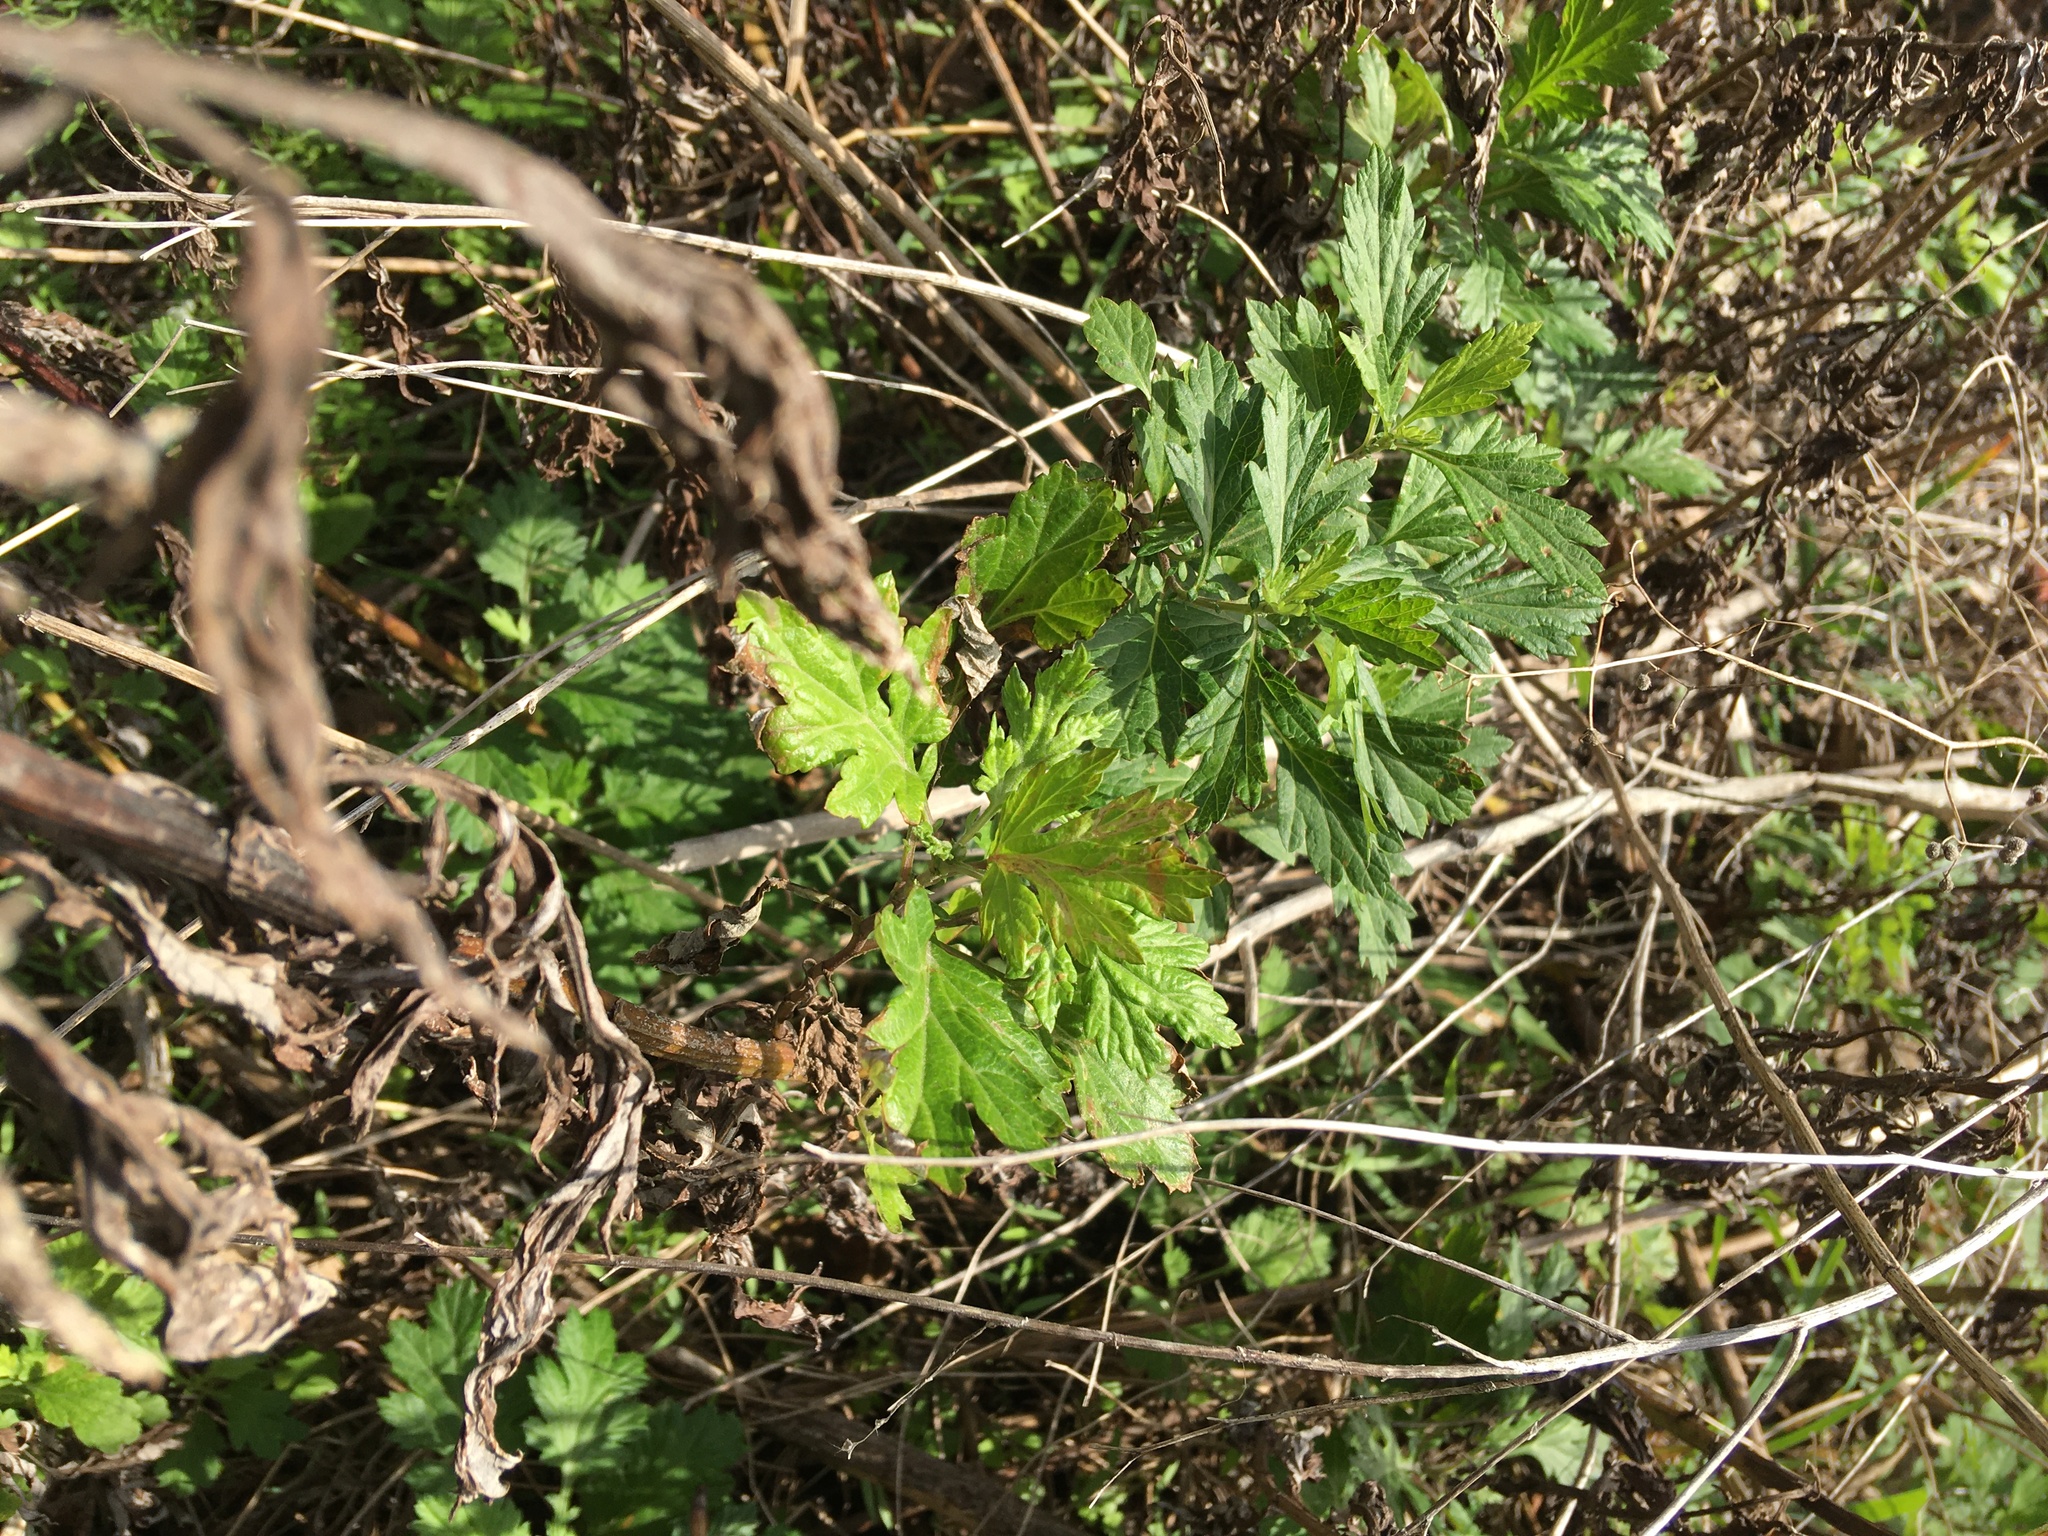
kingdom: Plantae
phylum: Tracheophyta
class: Magnoliopsida
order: Asterales
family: Asteraceae
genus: Artemisia
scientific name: Artemisia vulgaris
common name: Mugwort
